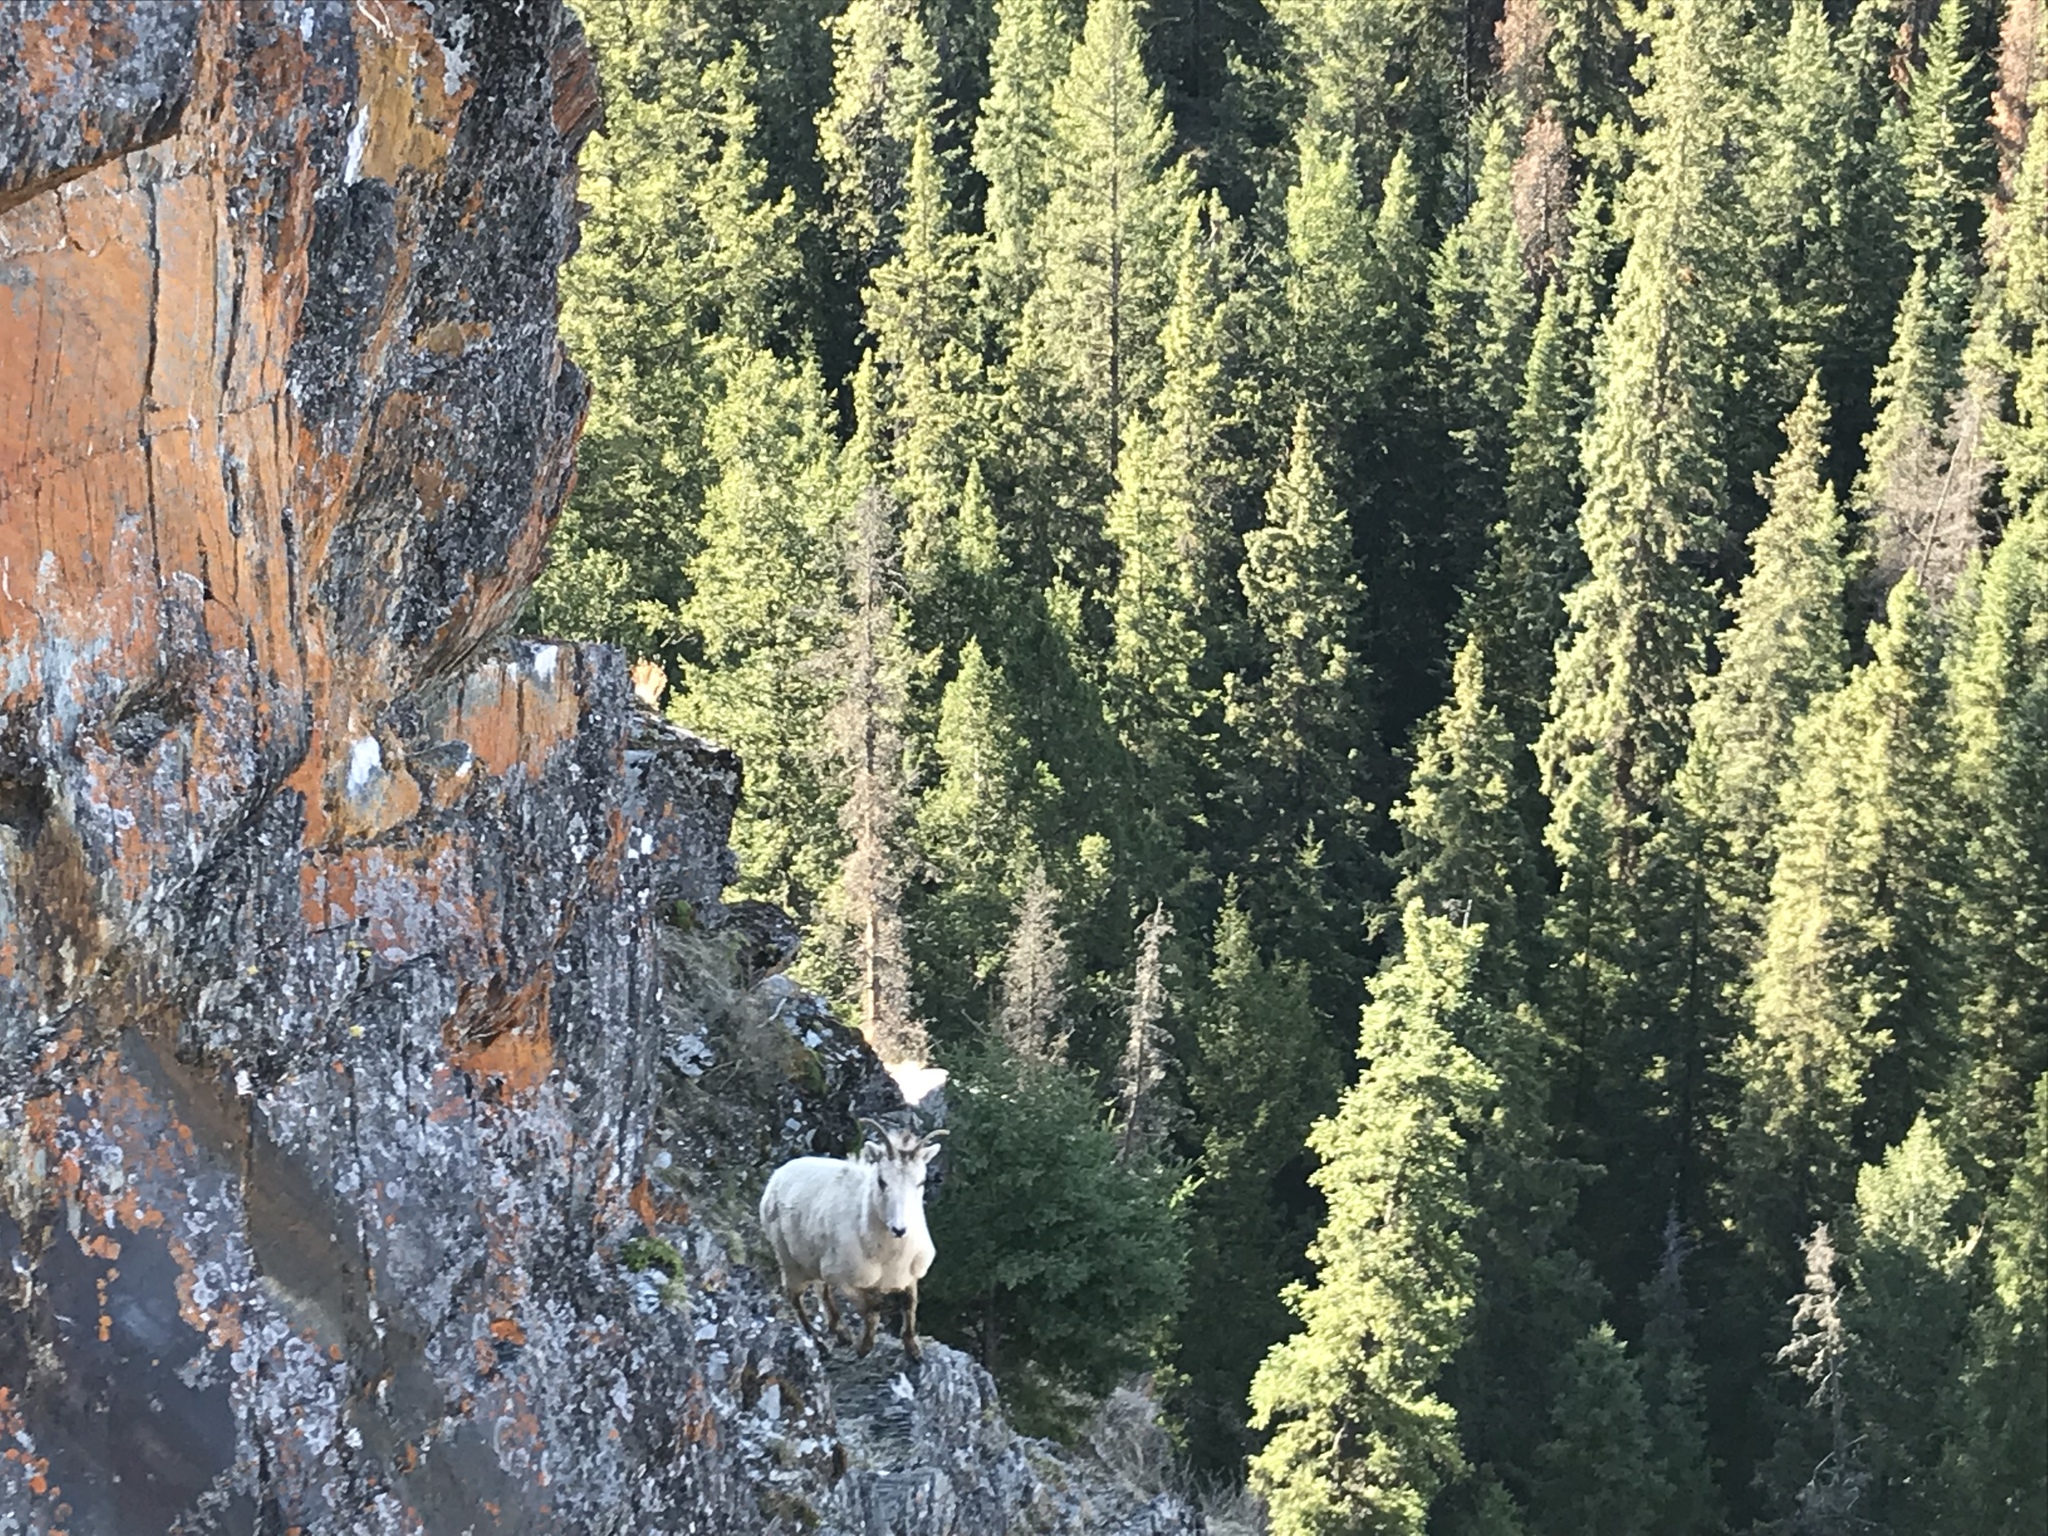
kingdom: Animalia
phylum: Chordata
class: Mammalia
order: Artiodactyla
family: Bovidae
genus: Ovis
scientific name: Ovis canadensis
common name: Bighorn sheep
